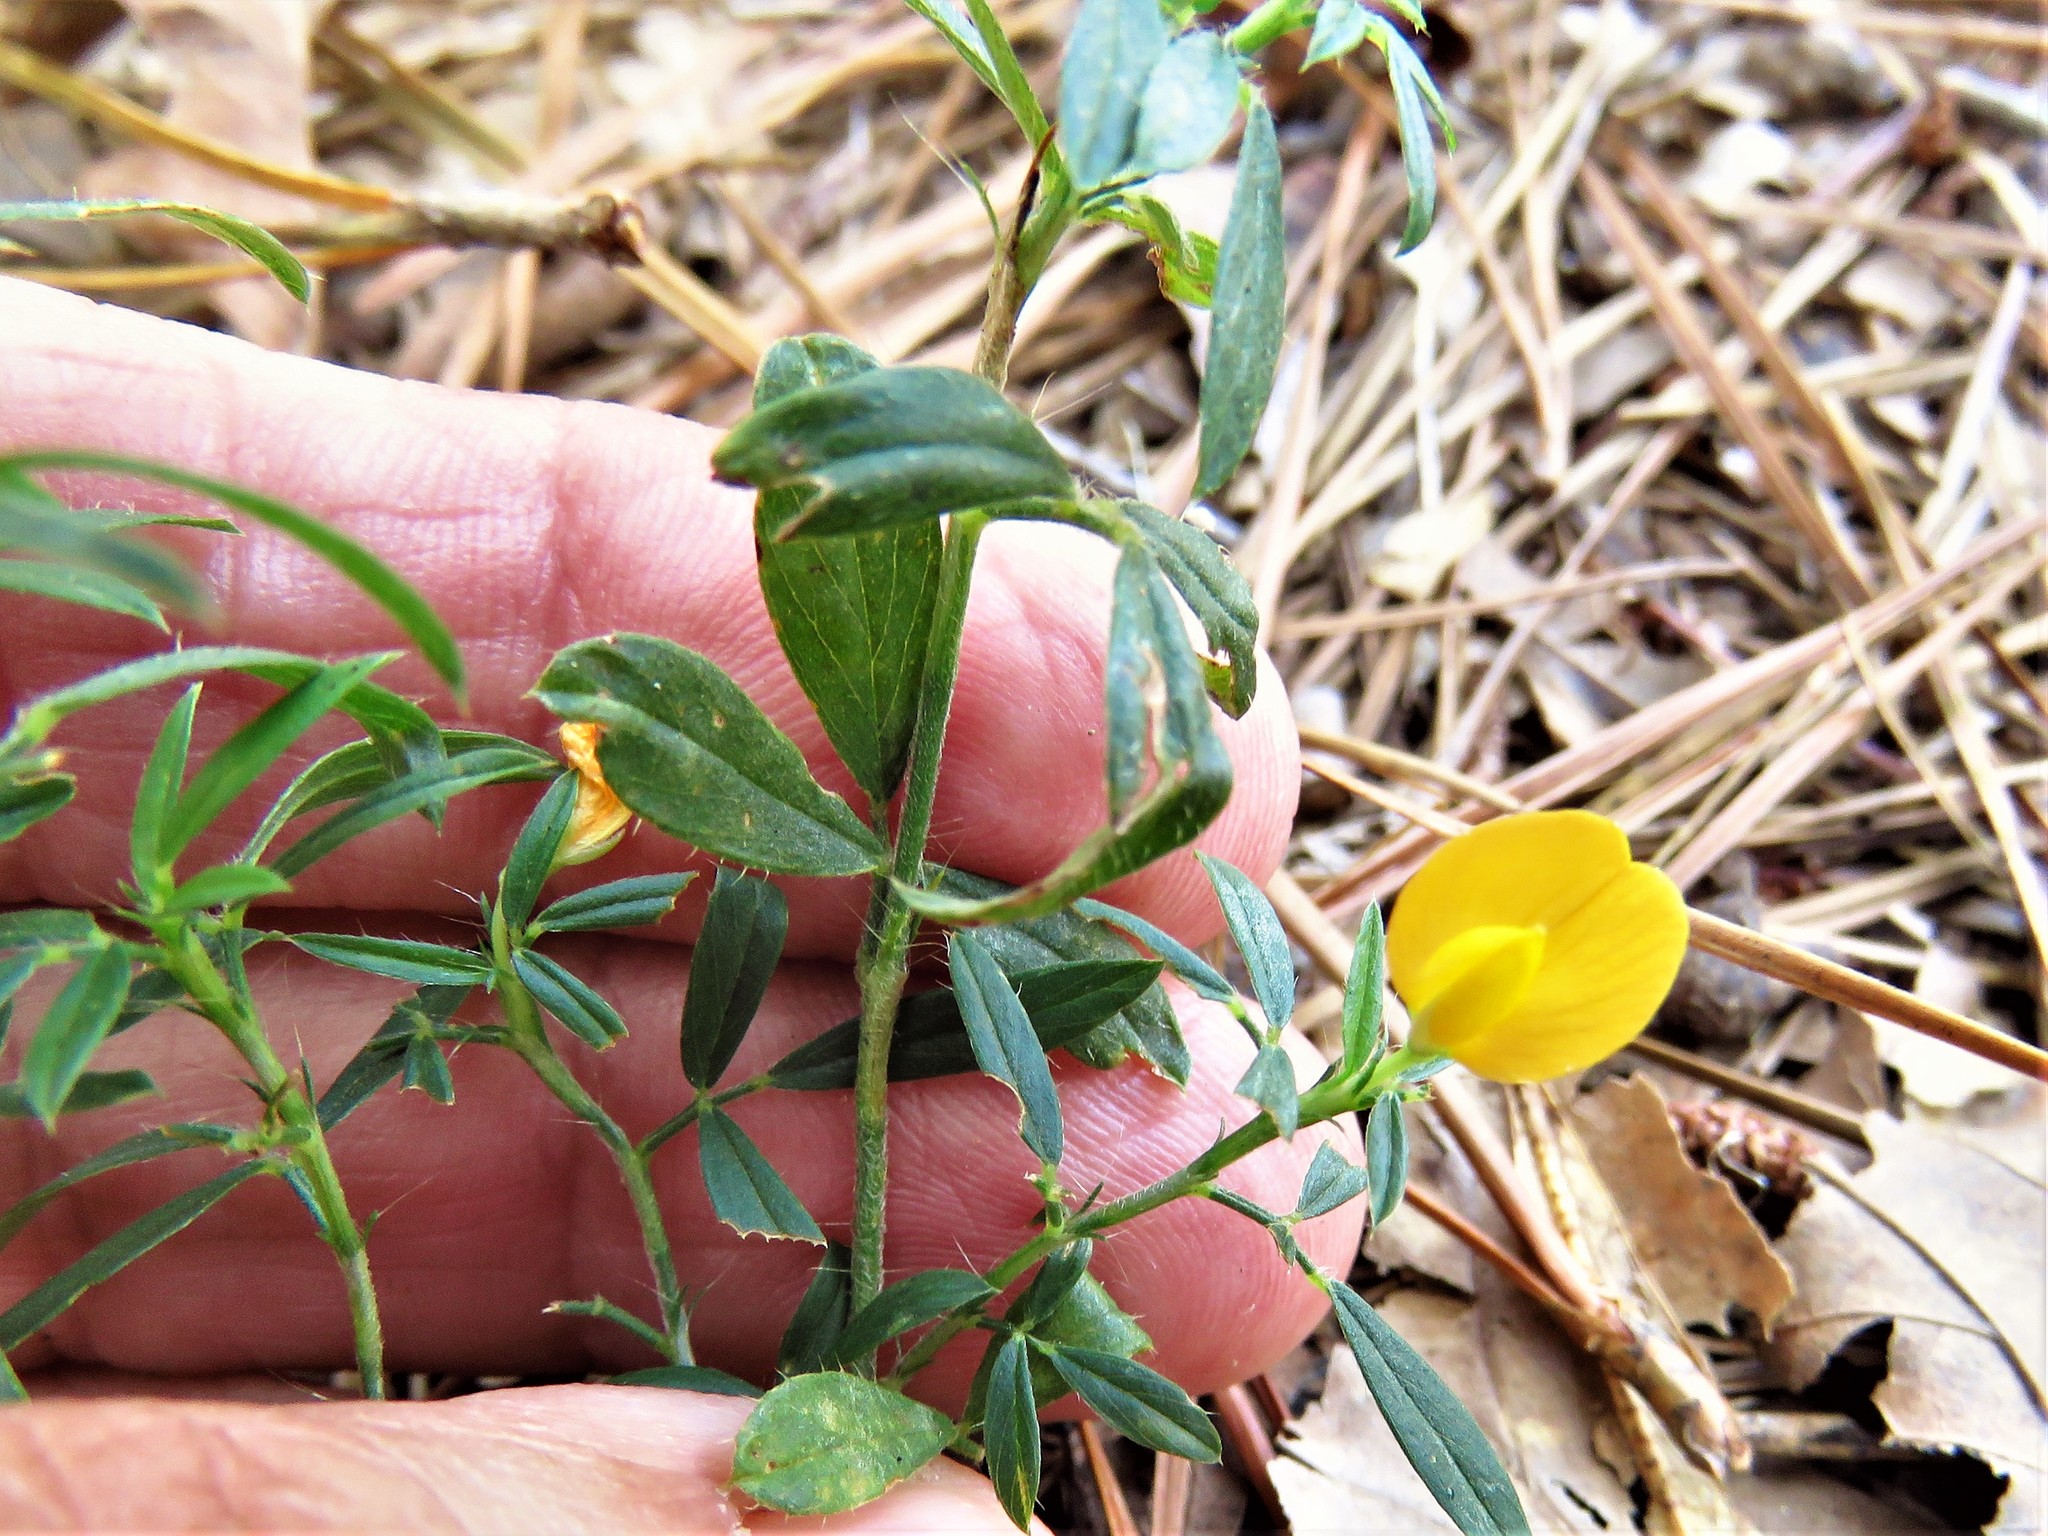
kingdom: Plantae
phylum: Tracheophyta
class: Magnoliopsida
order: Fabales
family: Fabaceae
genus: Stylosanthes
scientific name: Stylosanthes biflora
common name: Two-flower pencil-flower
